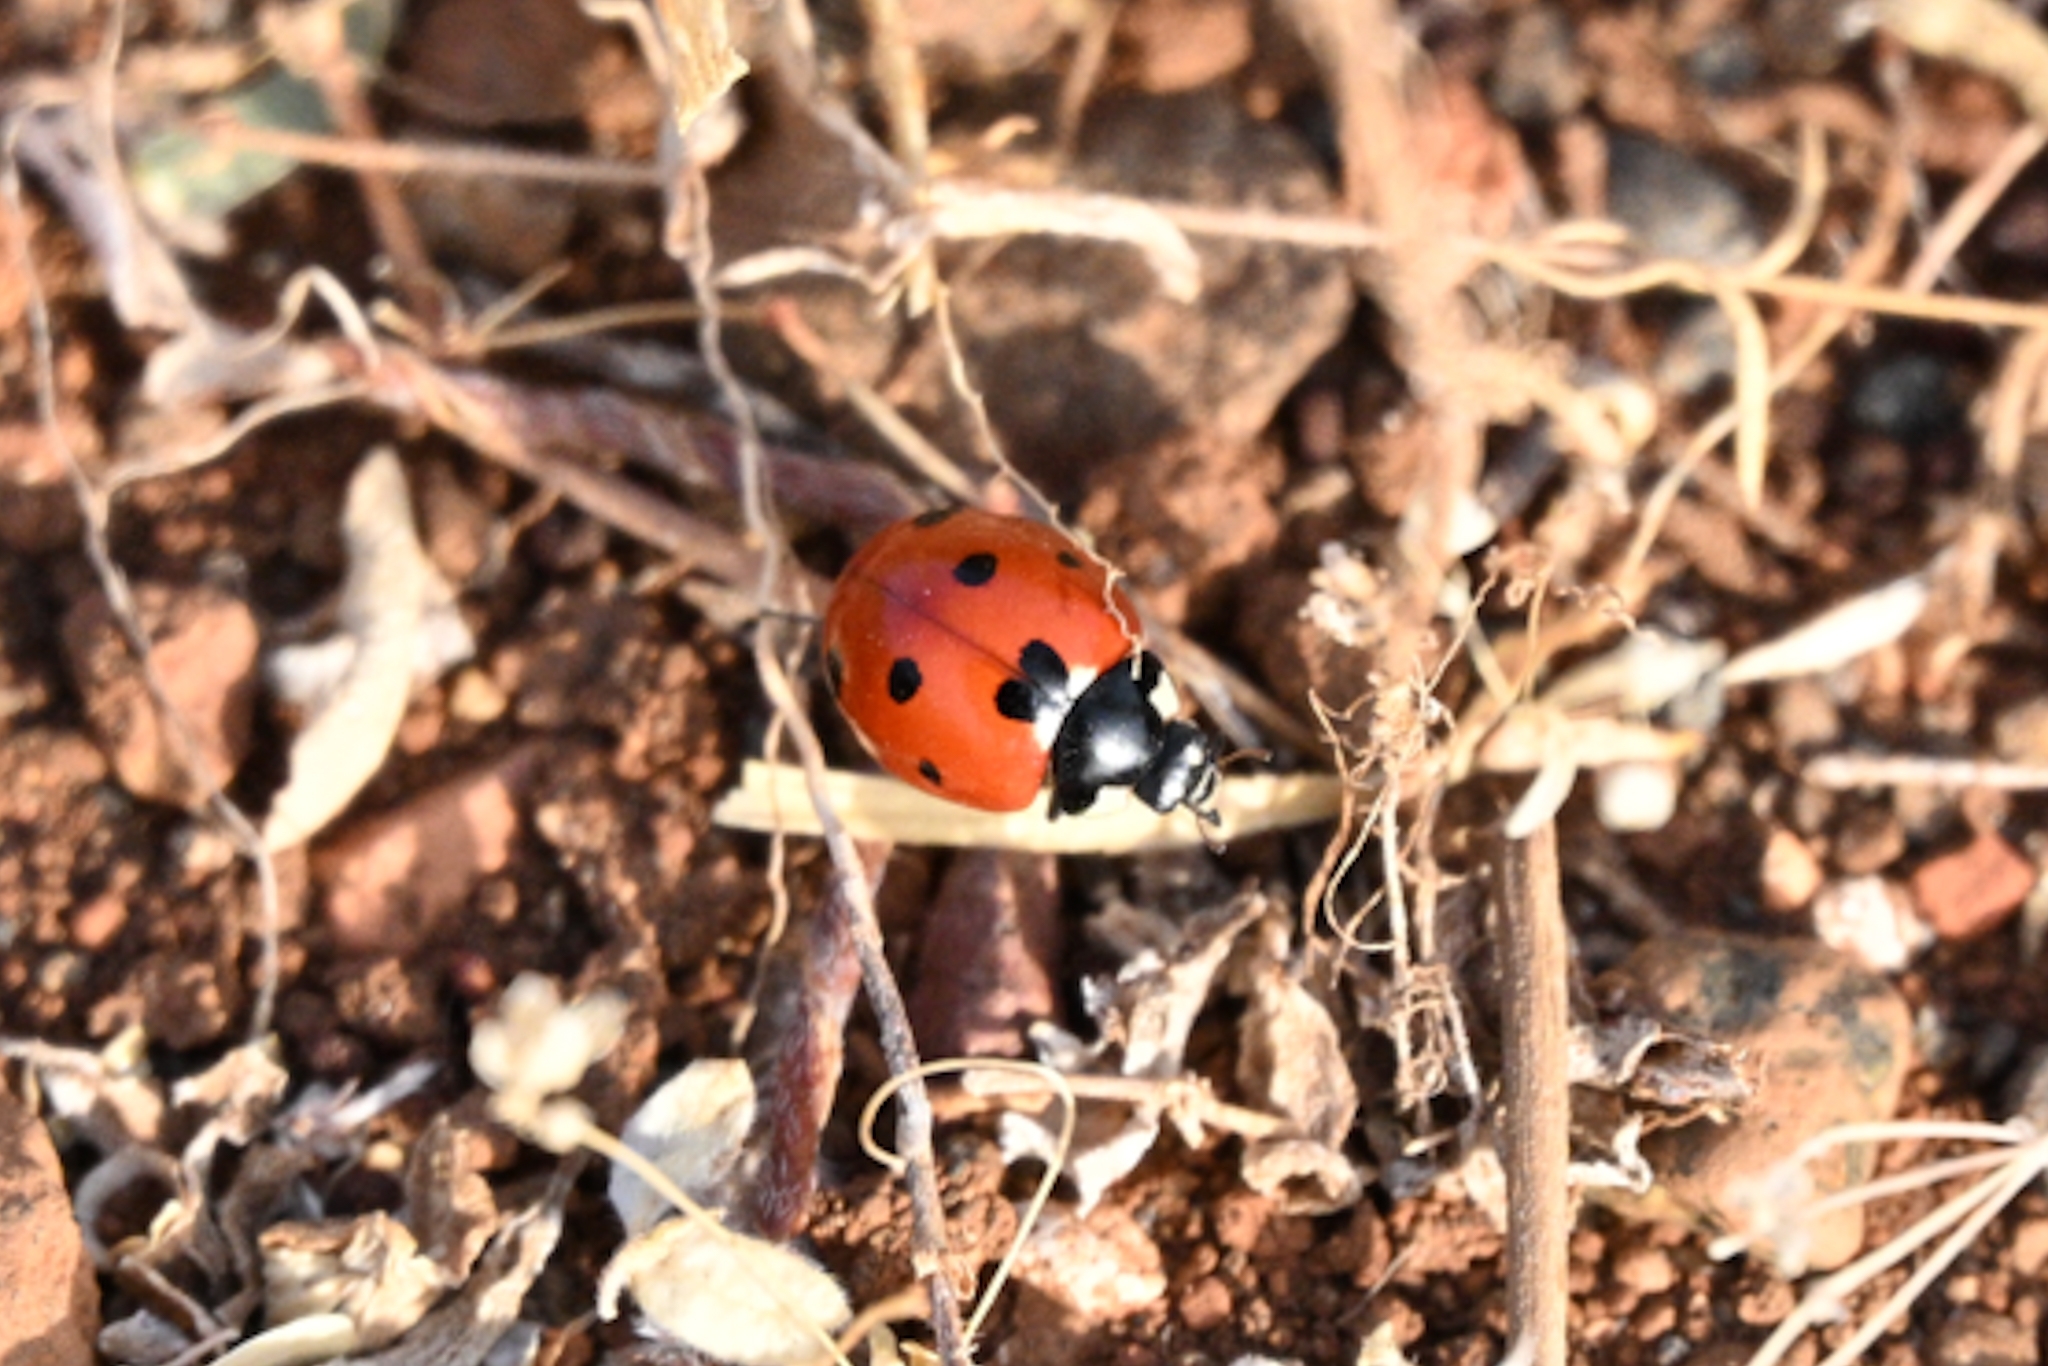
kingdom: Animalia
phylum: Arthropoda
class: Insecta
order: Coleoptera
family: Coccinellidae
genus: Coccinella
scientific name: Coccinella algerica
